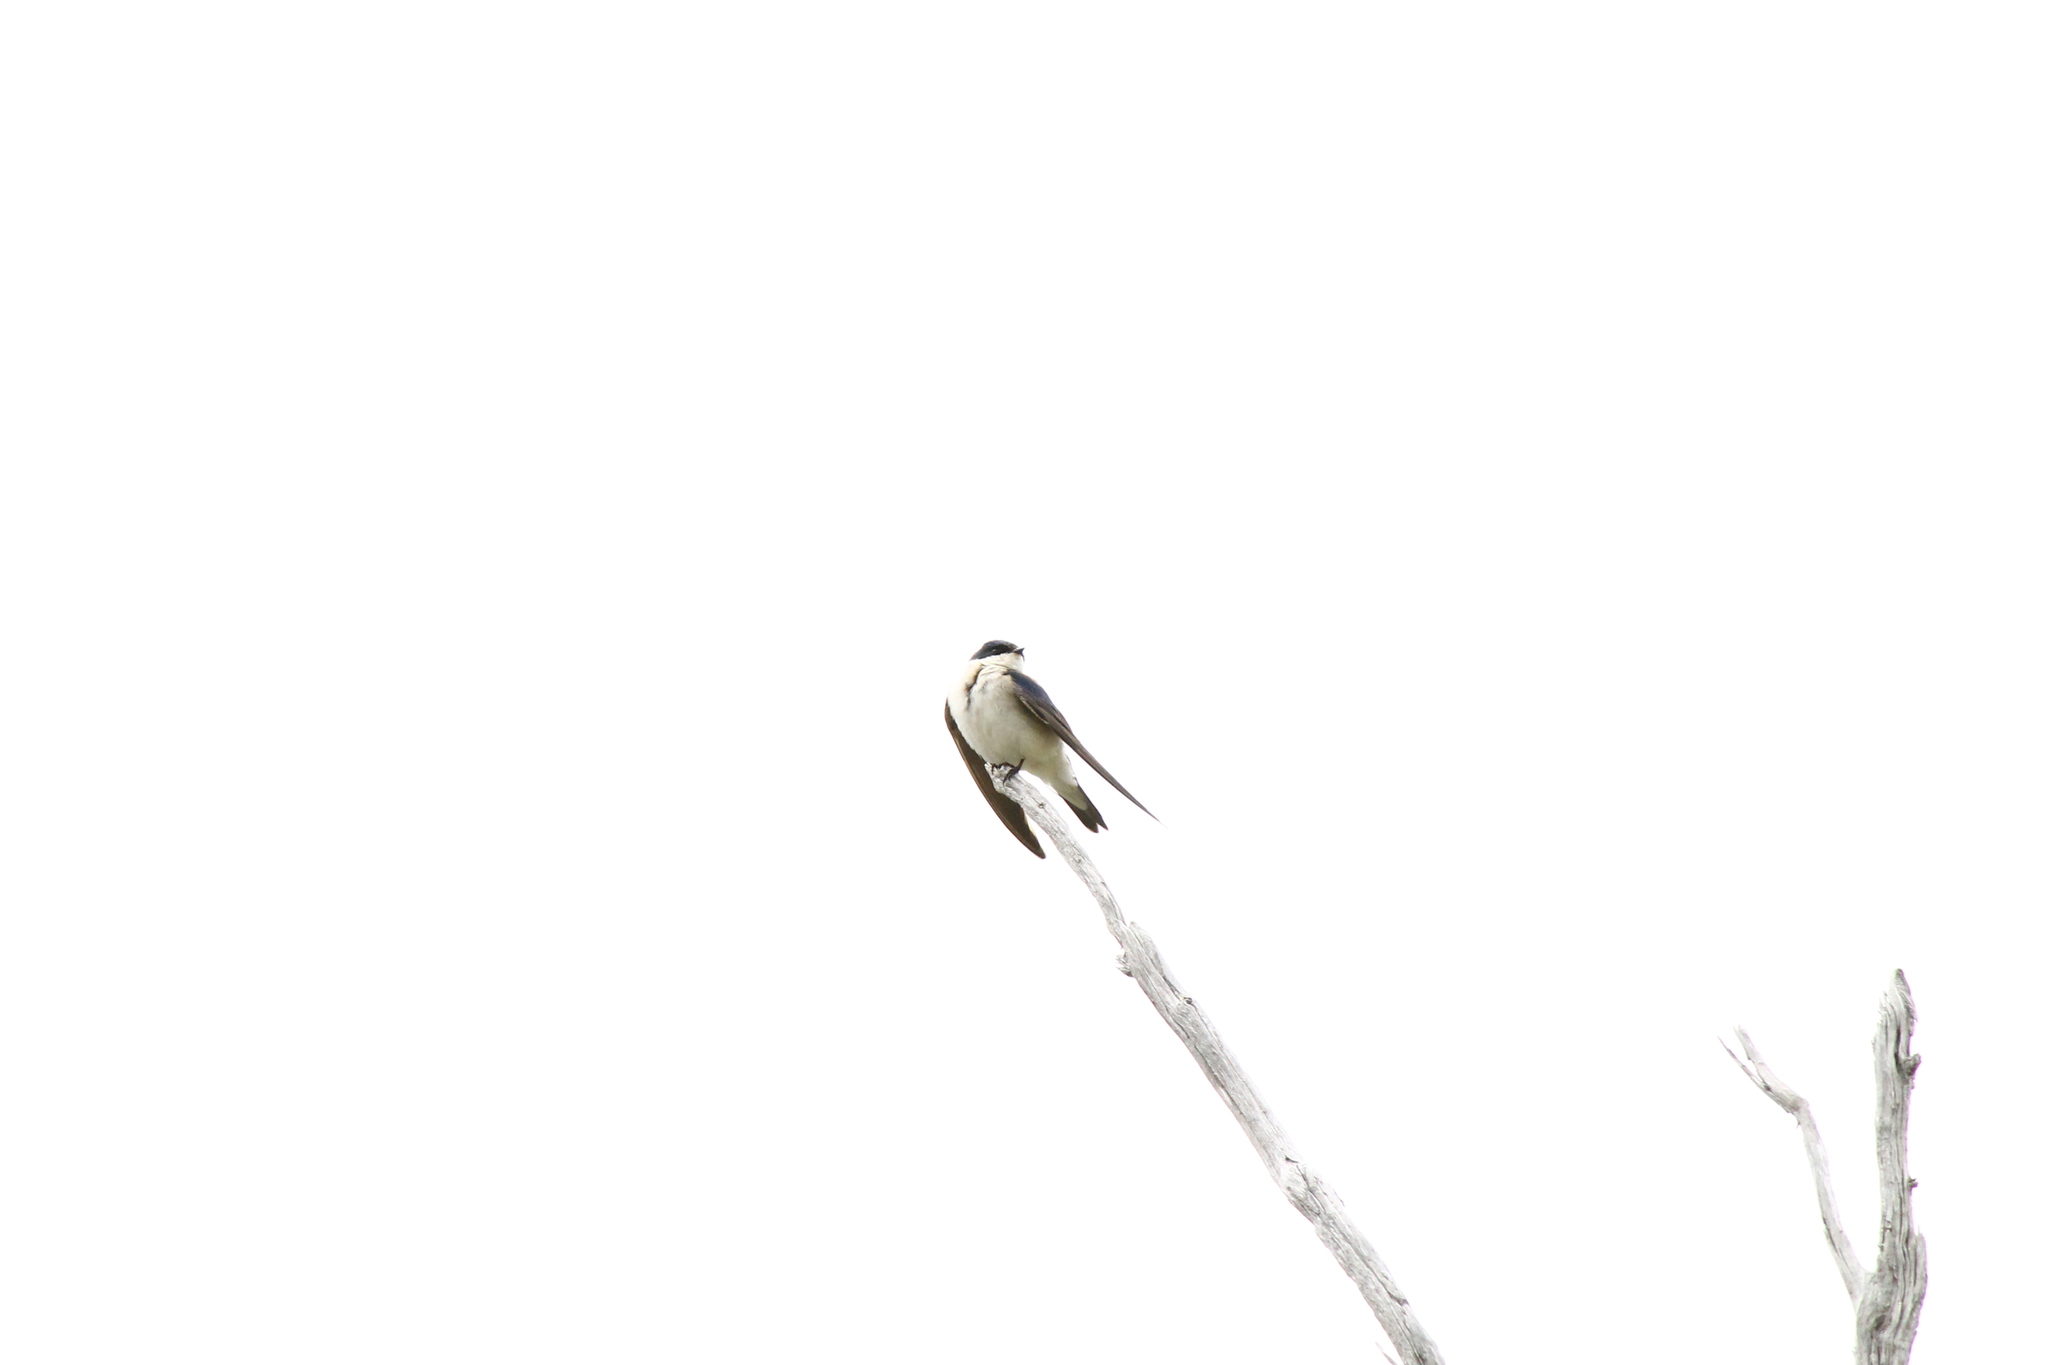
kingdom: Animalia
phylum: Chordata
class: Aves
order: Passeriformes
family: Hirundinidae
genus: Tachycineta
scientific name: Tachycineta leucopyga
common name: Chilean swallow
